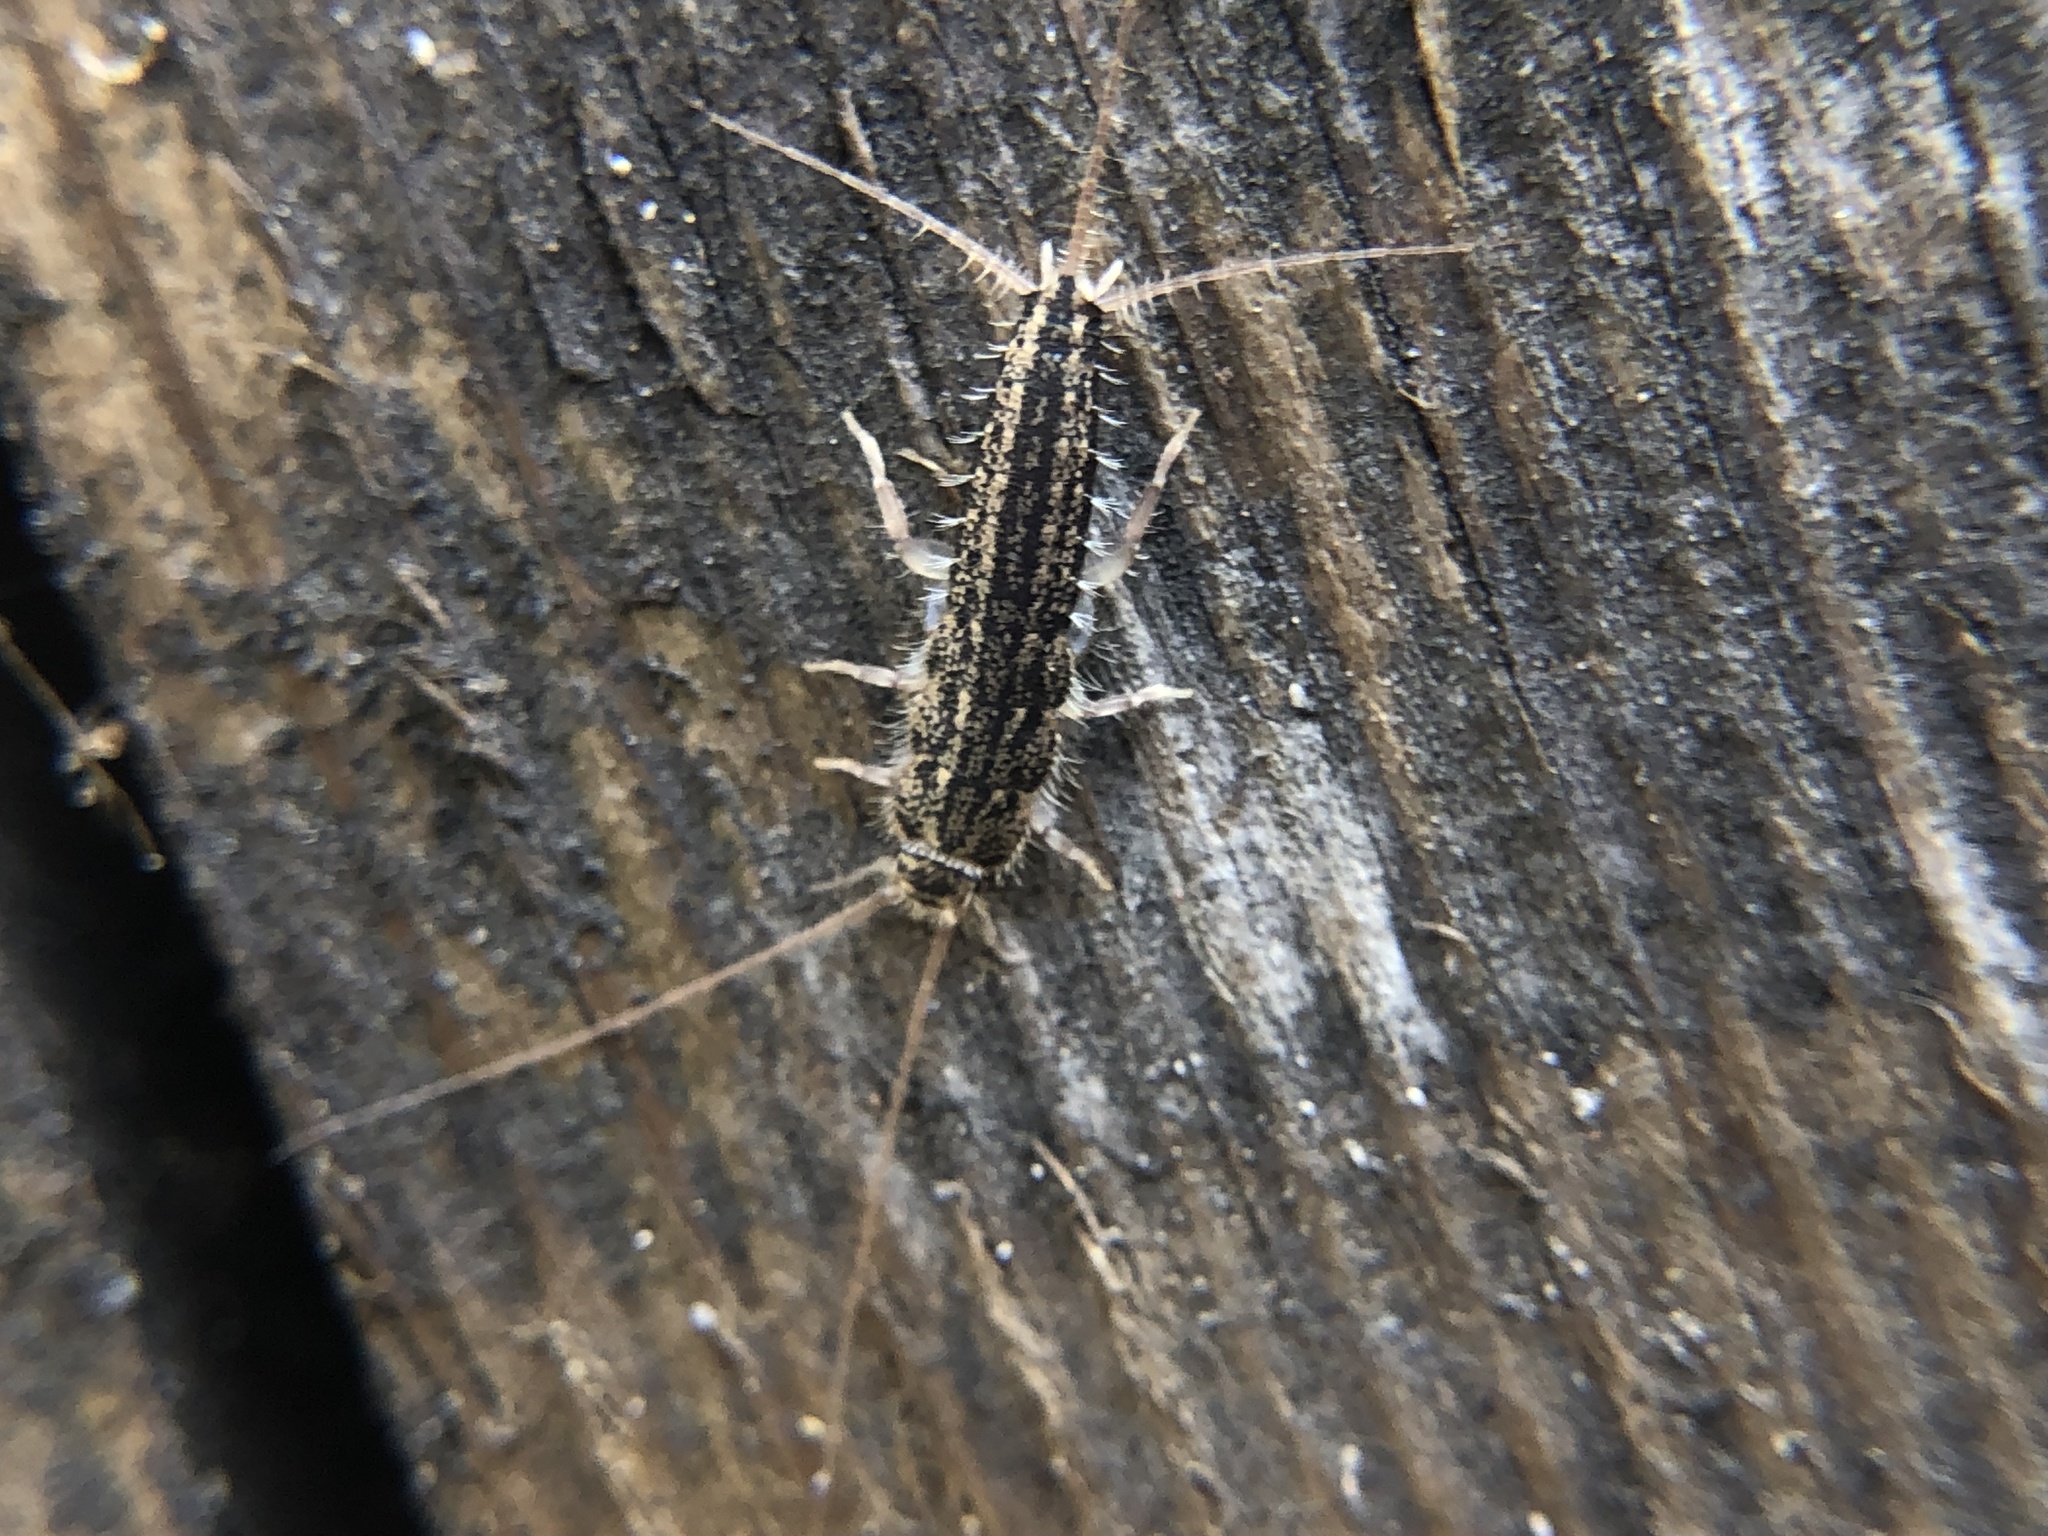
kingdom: Animalia
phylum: Arthropoda
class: Insecta
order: Zygentoma
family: Lepismatidae
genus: Ctenolepisma
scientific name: Ctenolepisma lineata
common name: Four-lined silverfish
